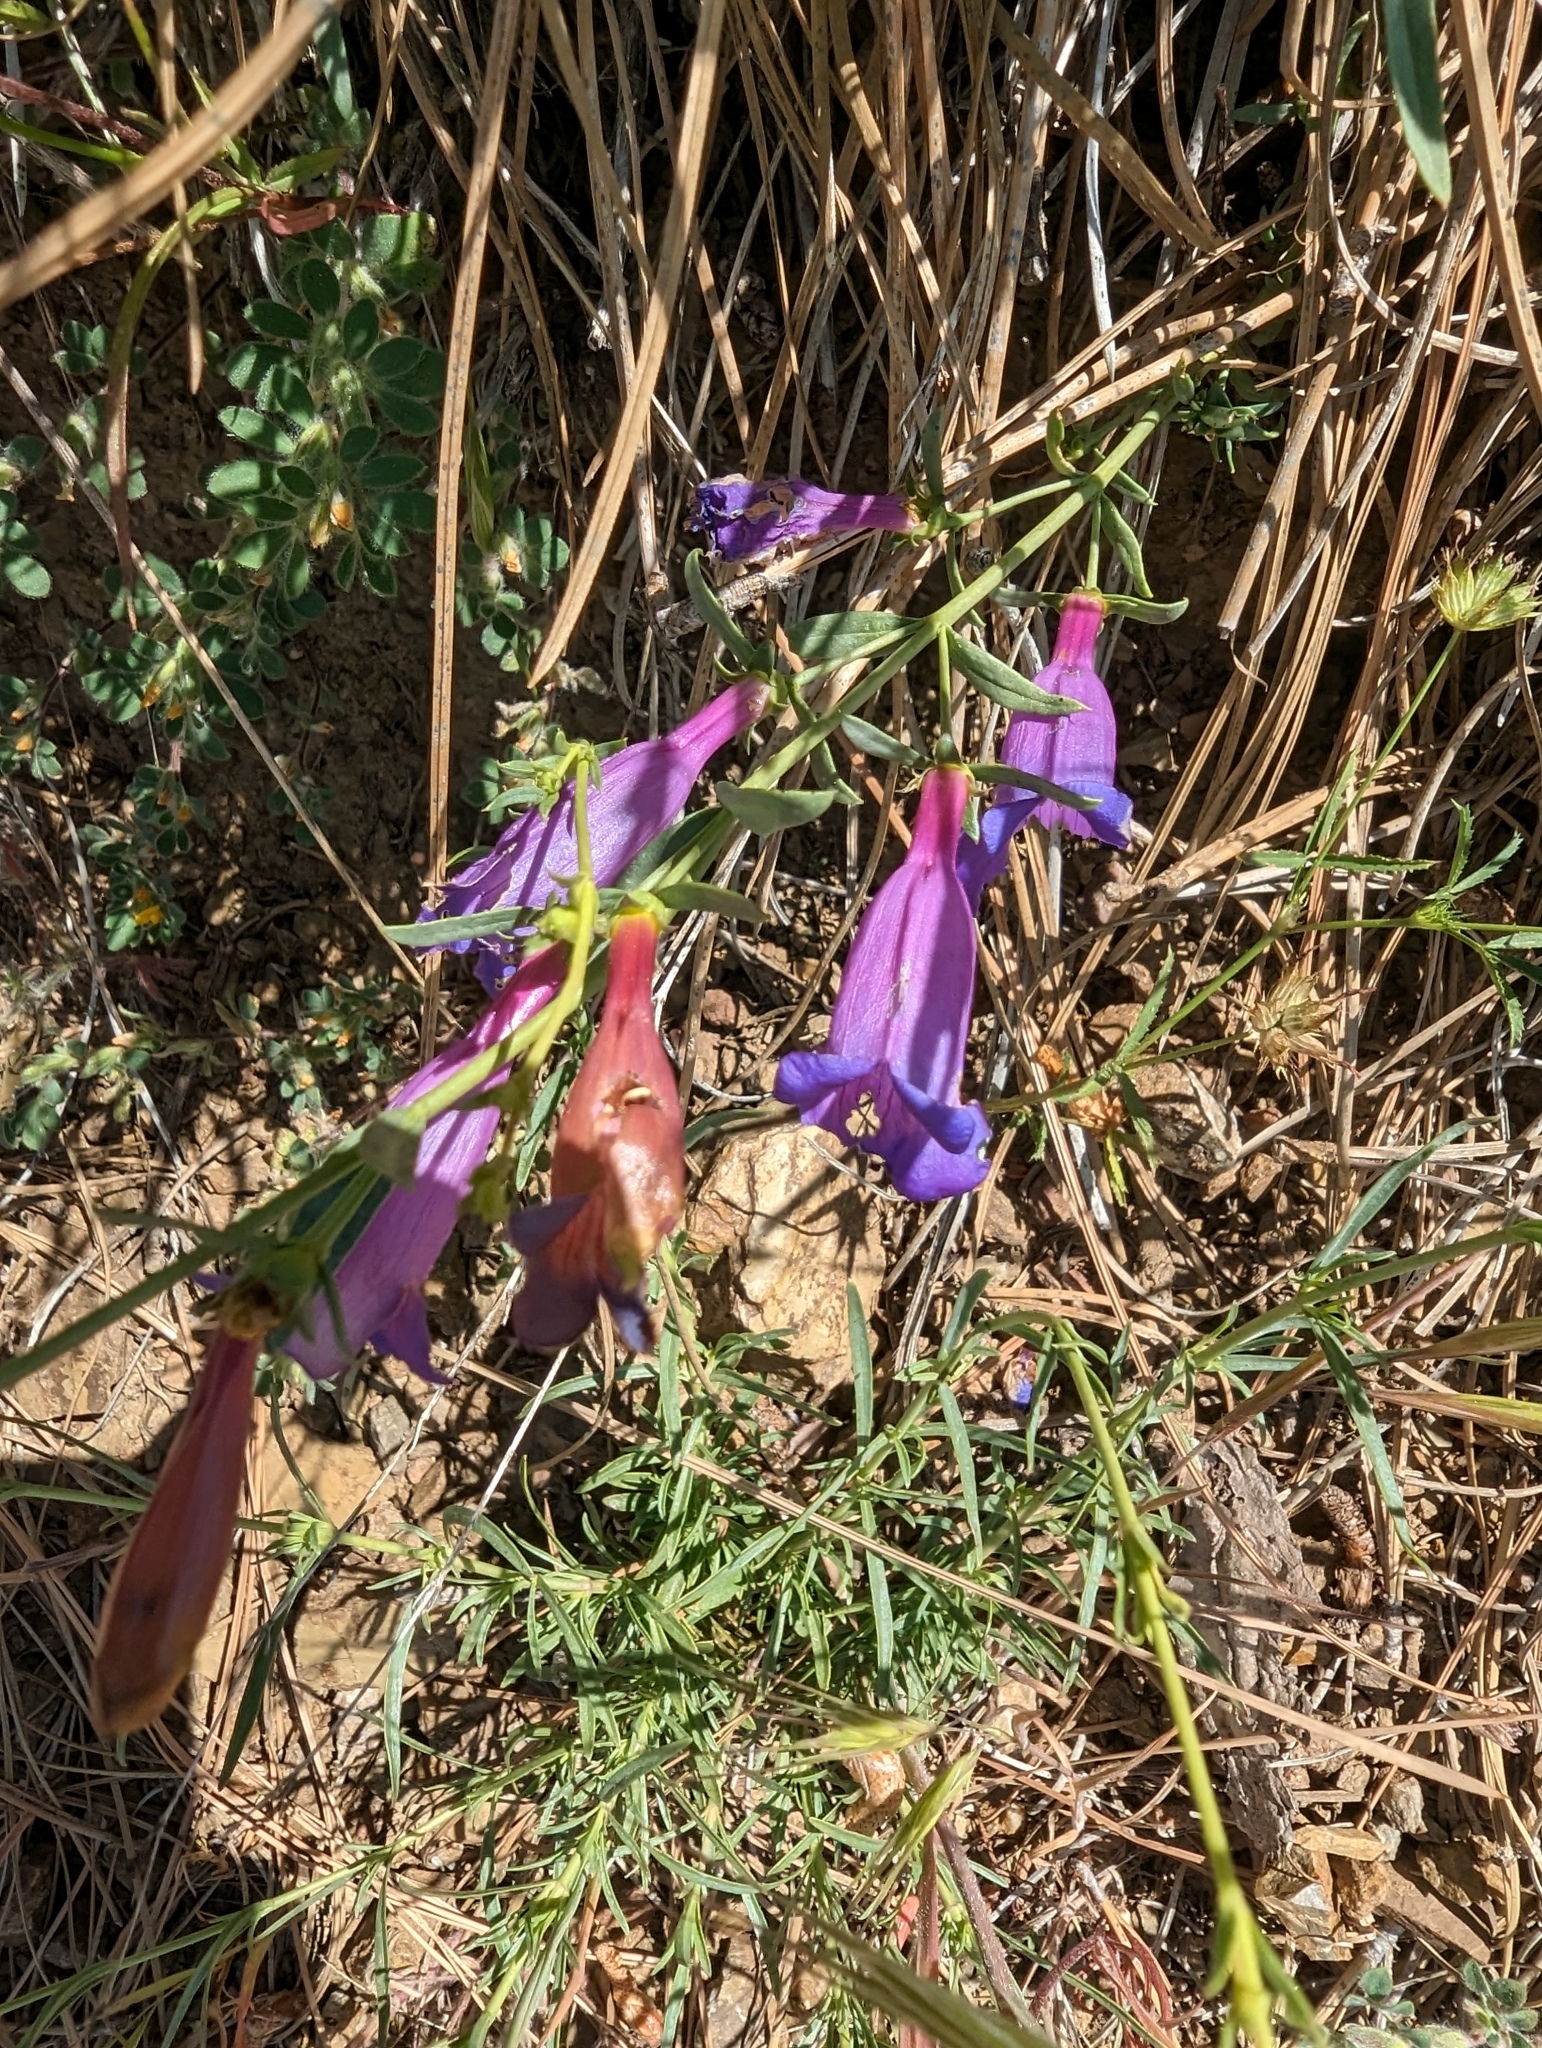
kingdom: Plantae
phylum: Tracheophyta
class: Magnoliopsida
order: Lamiales
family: Plantaginaceae
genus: Penstemon
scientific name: Penstemon heterophyllus
